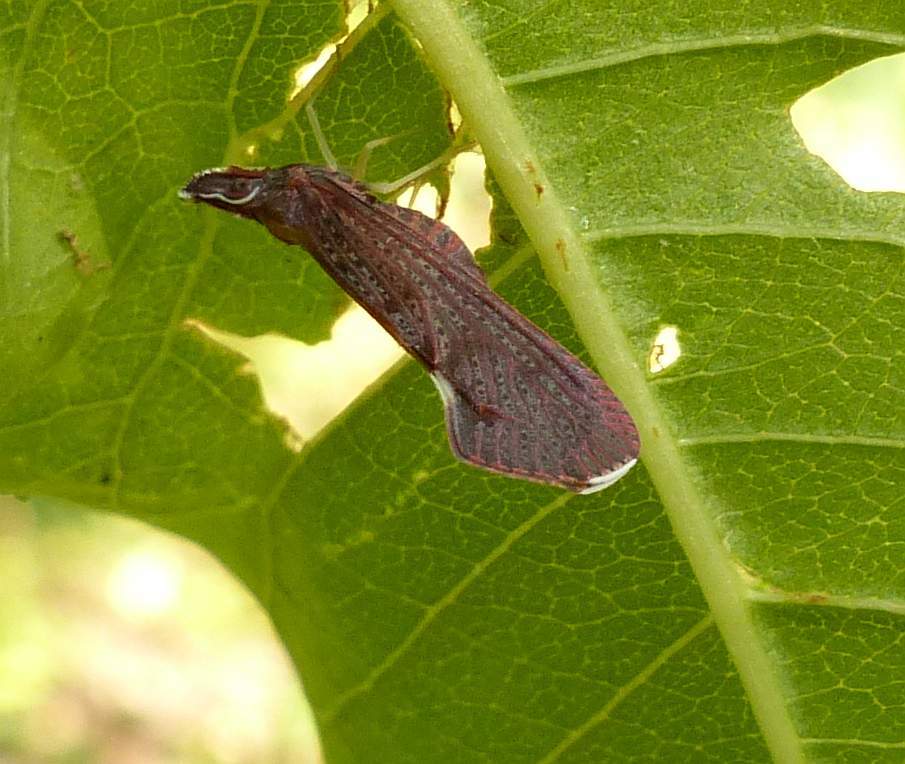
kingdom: Animalia
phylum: Arthropoda
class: Insecta
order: Hemiptera
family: Derbidae
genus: Apache
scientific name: Apache degeeri
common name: Red-fanned planthopper
